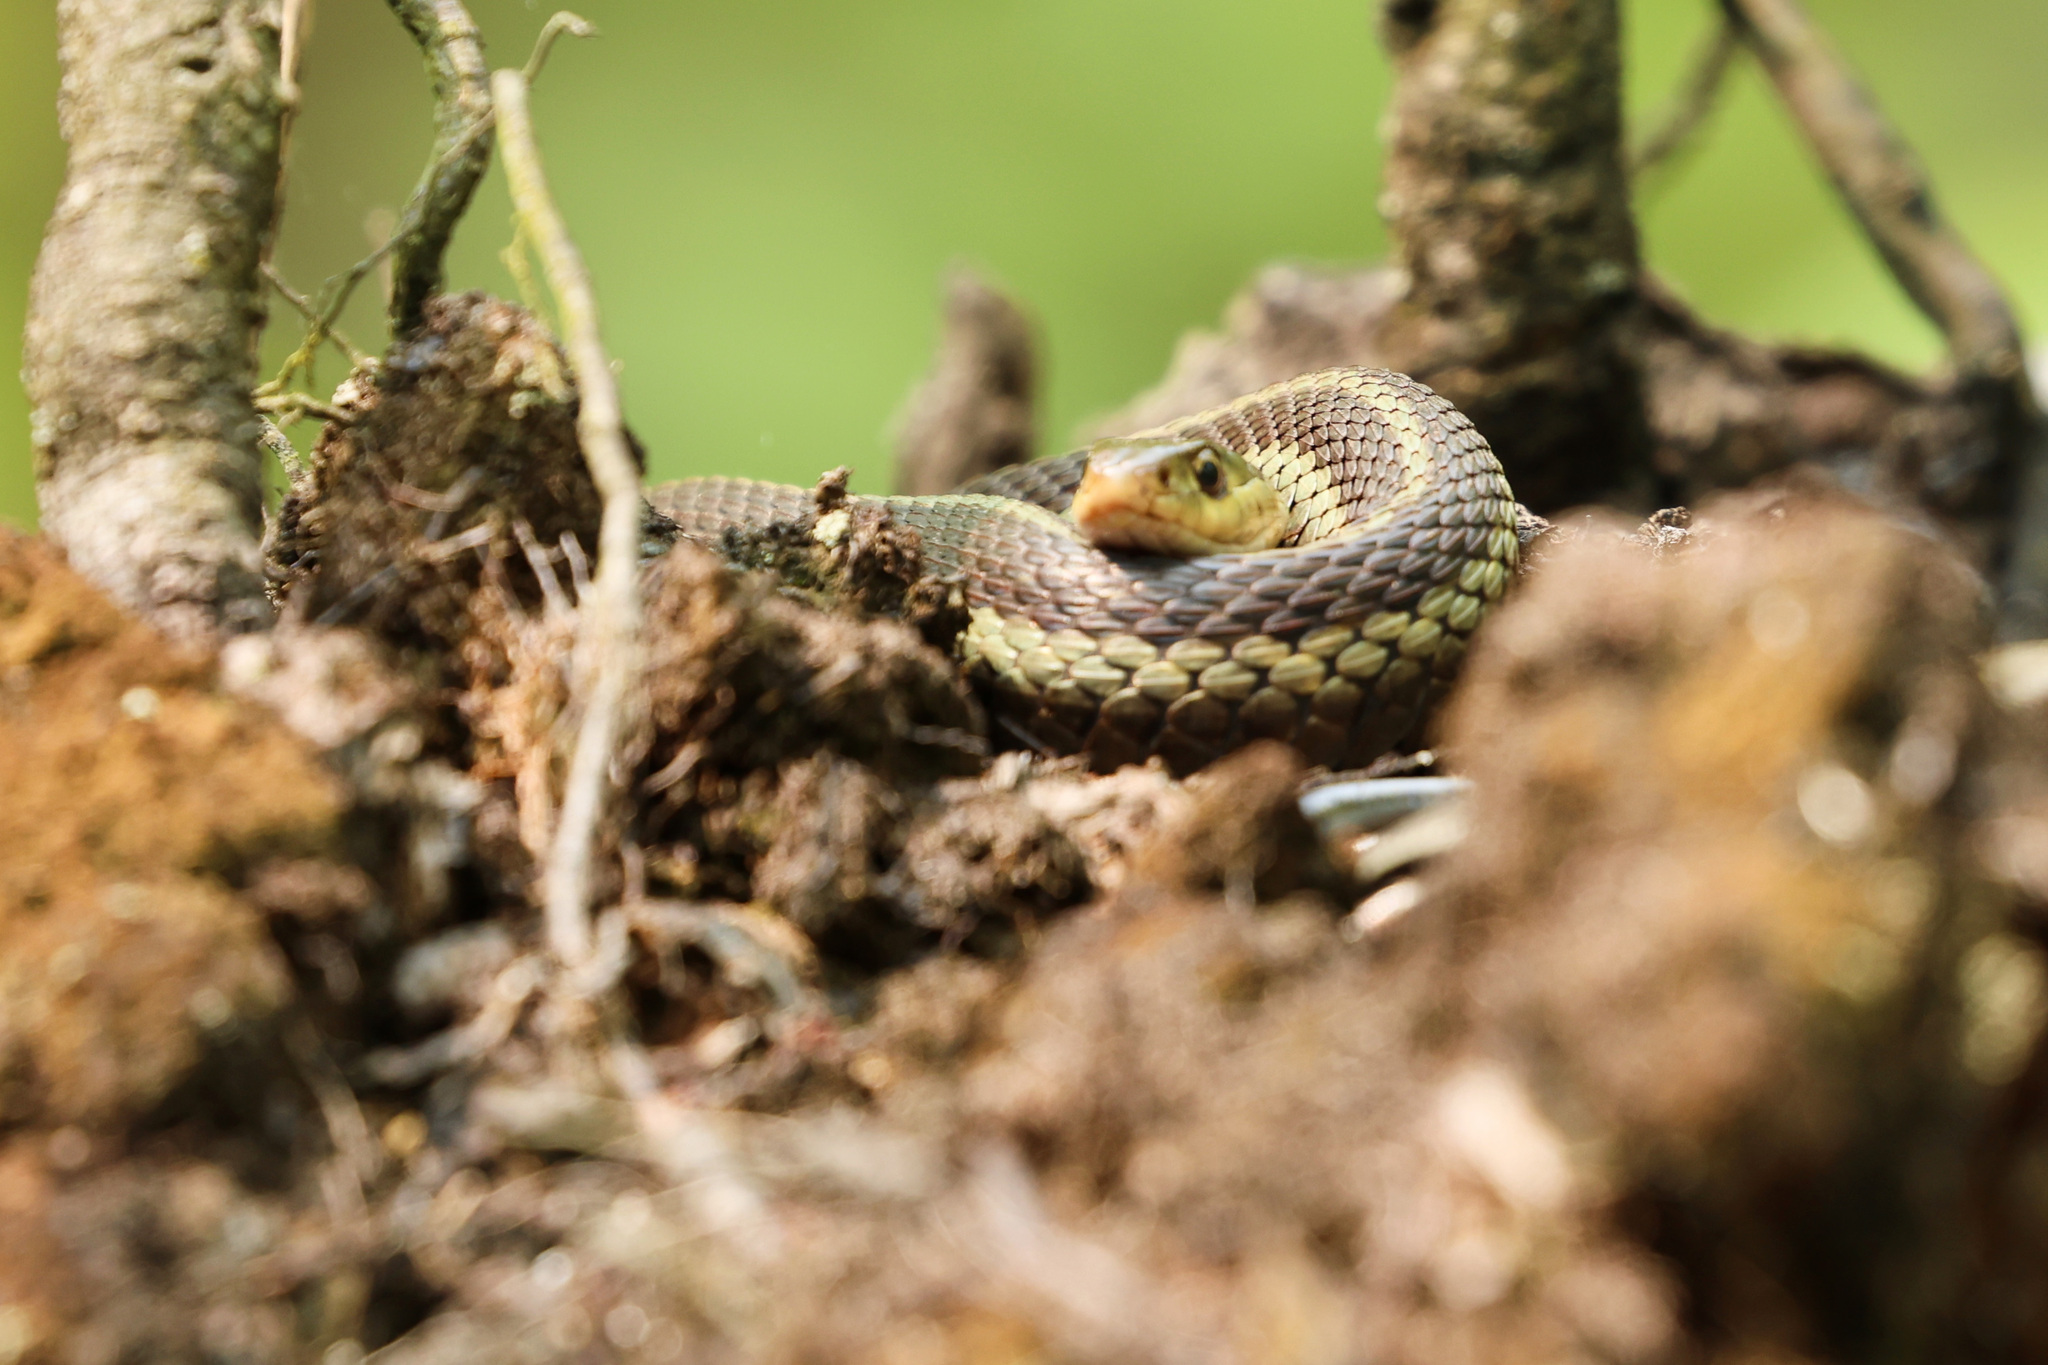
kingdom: Animalia
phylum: Chordata
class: Squamata
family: Colubridae
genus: Thamnophis
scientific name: Thamnophis sirtalis
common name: Common garter snake
